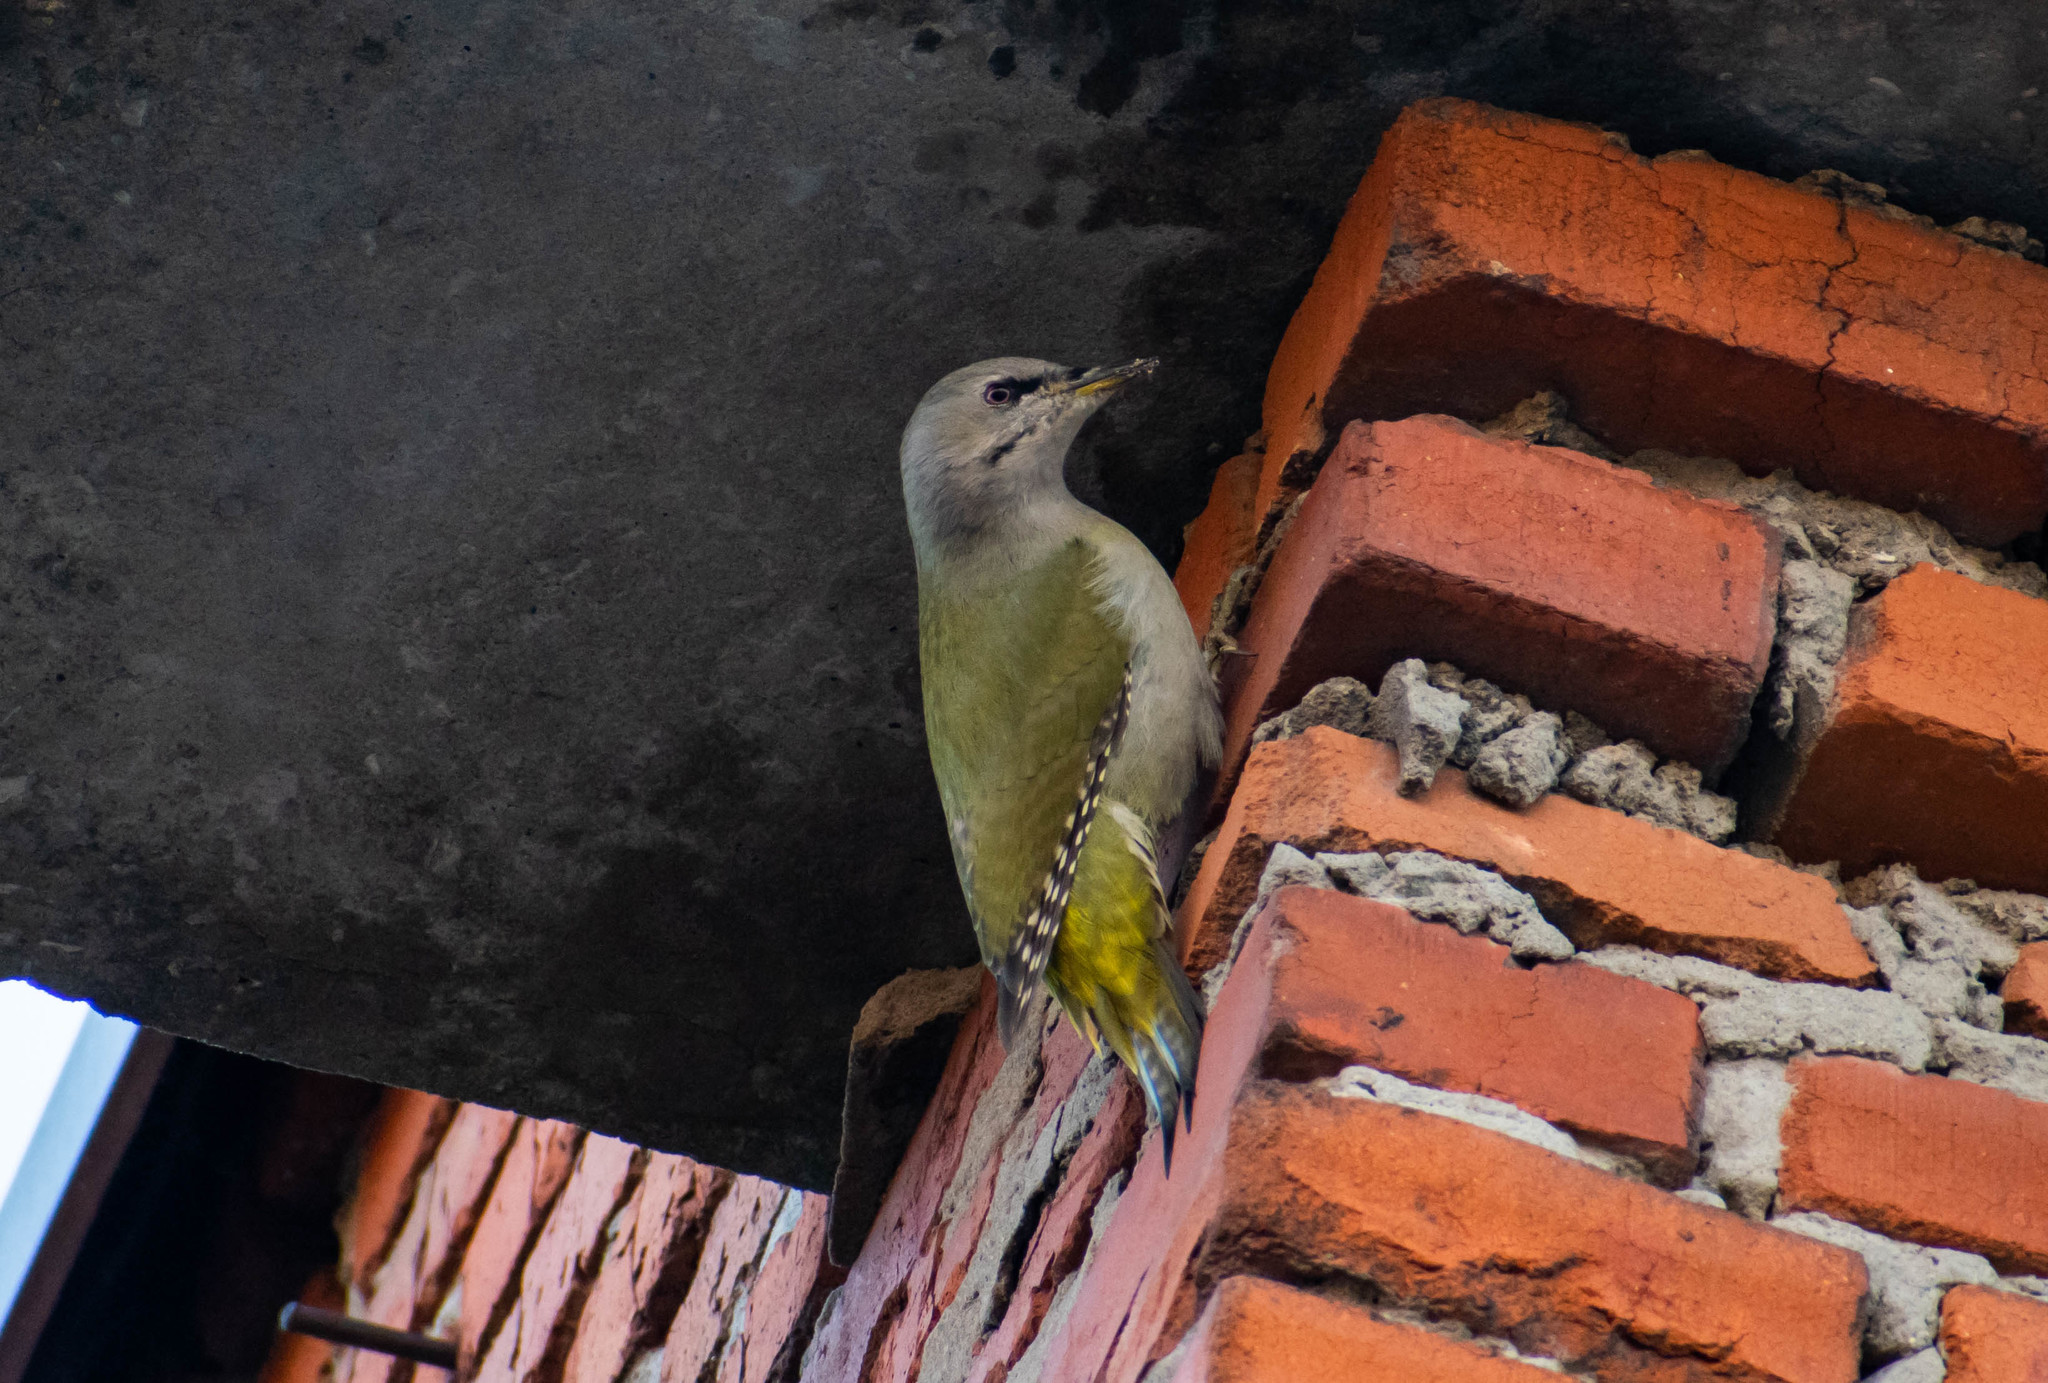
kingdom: Animalia
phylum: Chordata
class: Aves
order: Piciformes
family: Picidae
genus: Picus
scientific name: Picus canus
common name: Grey-headed woodpecker
